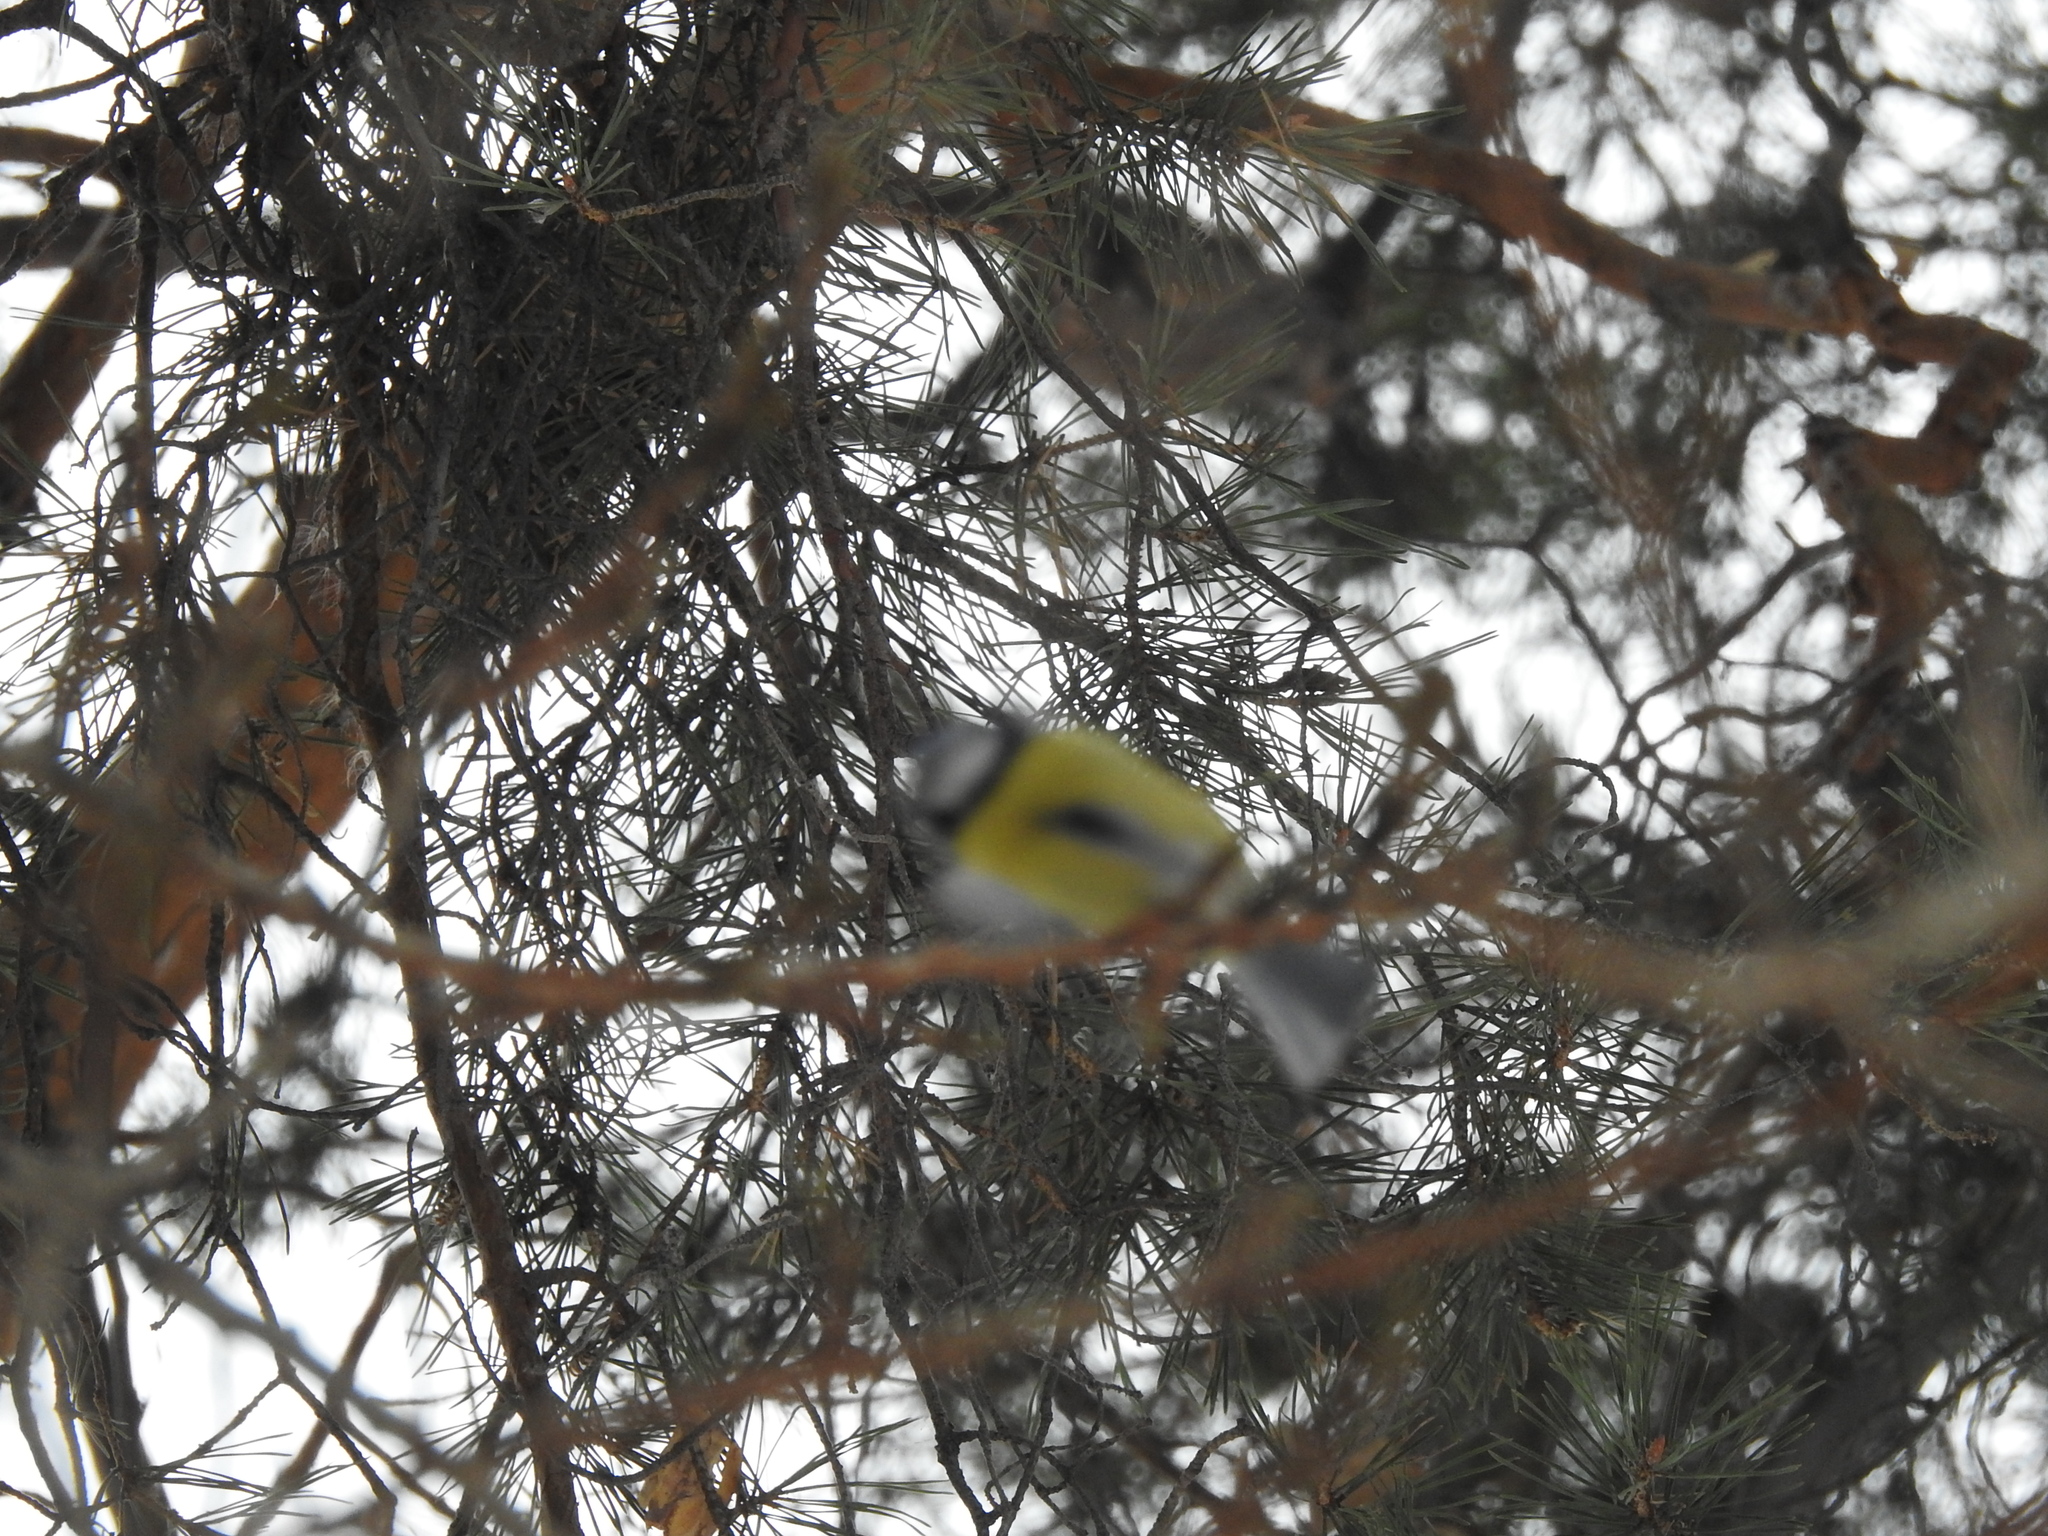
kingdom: Animalia
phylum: Chordata
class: Aves
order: Passeriformes
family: Paridae
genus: Cyanistes
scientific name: Cyanistes caeruleus
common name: Eurasian blue tit
